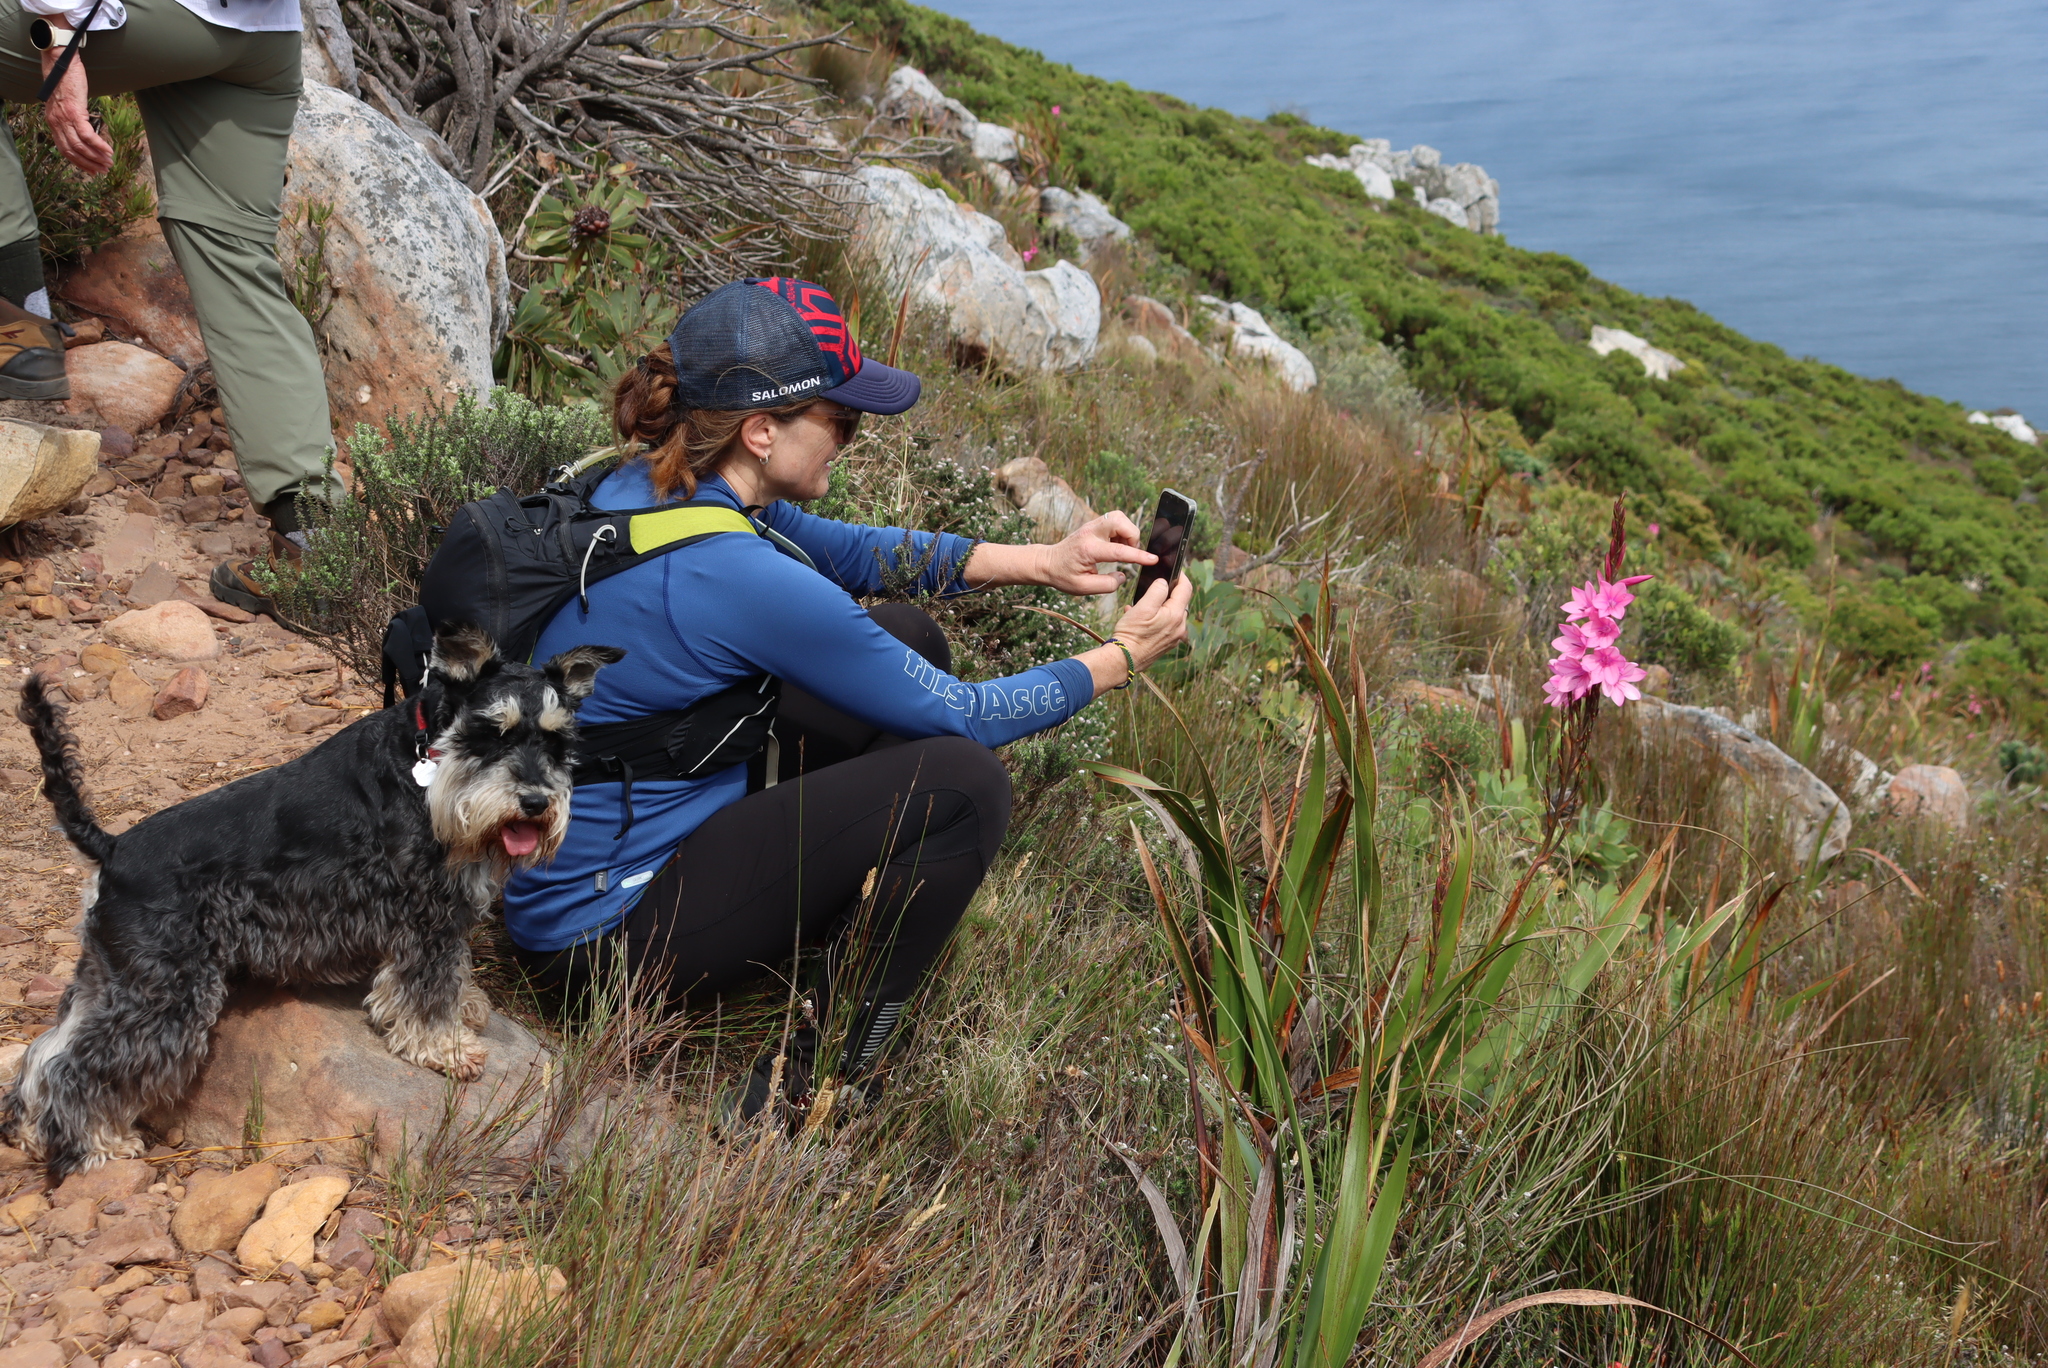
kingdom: Plantae
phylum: Tracheophyta
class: Liliopsida
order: Asparagales
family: Iridaceae
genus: Watsonia
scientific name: Watsonia borbonica
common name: Bugle-lily
